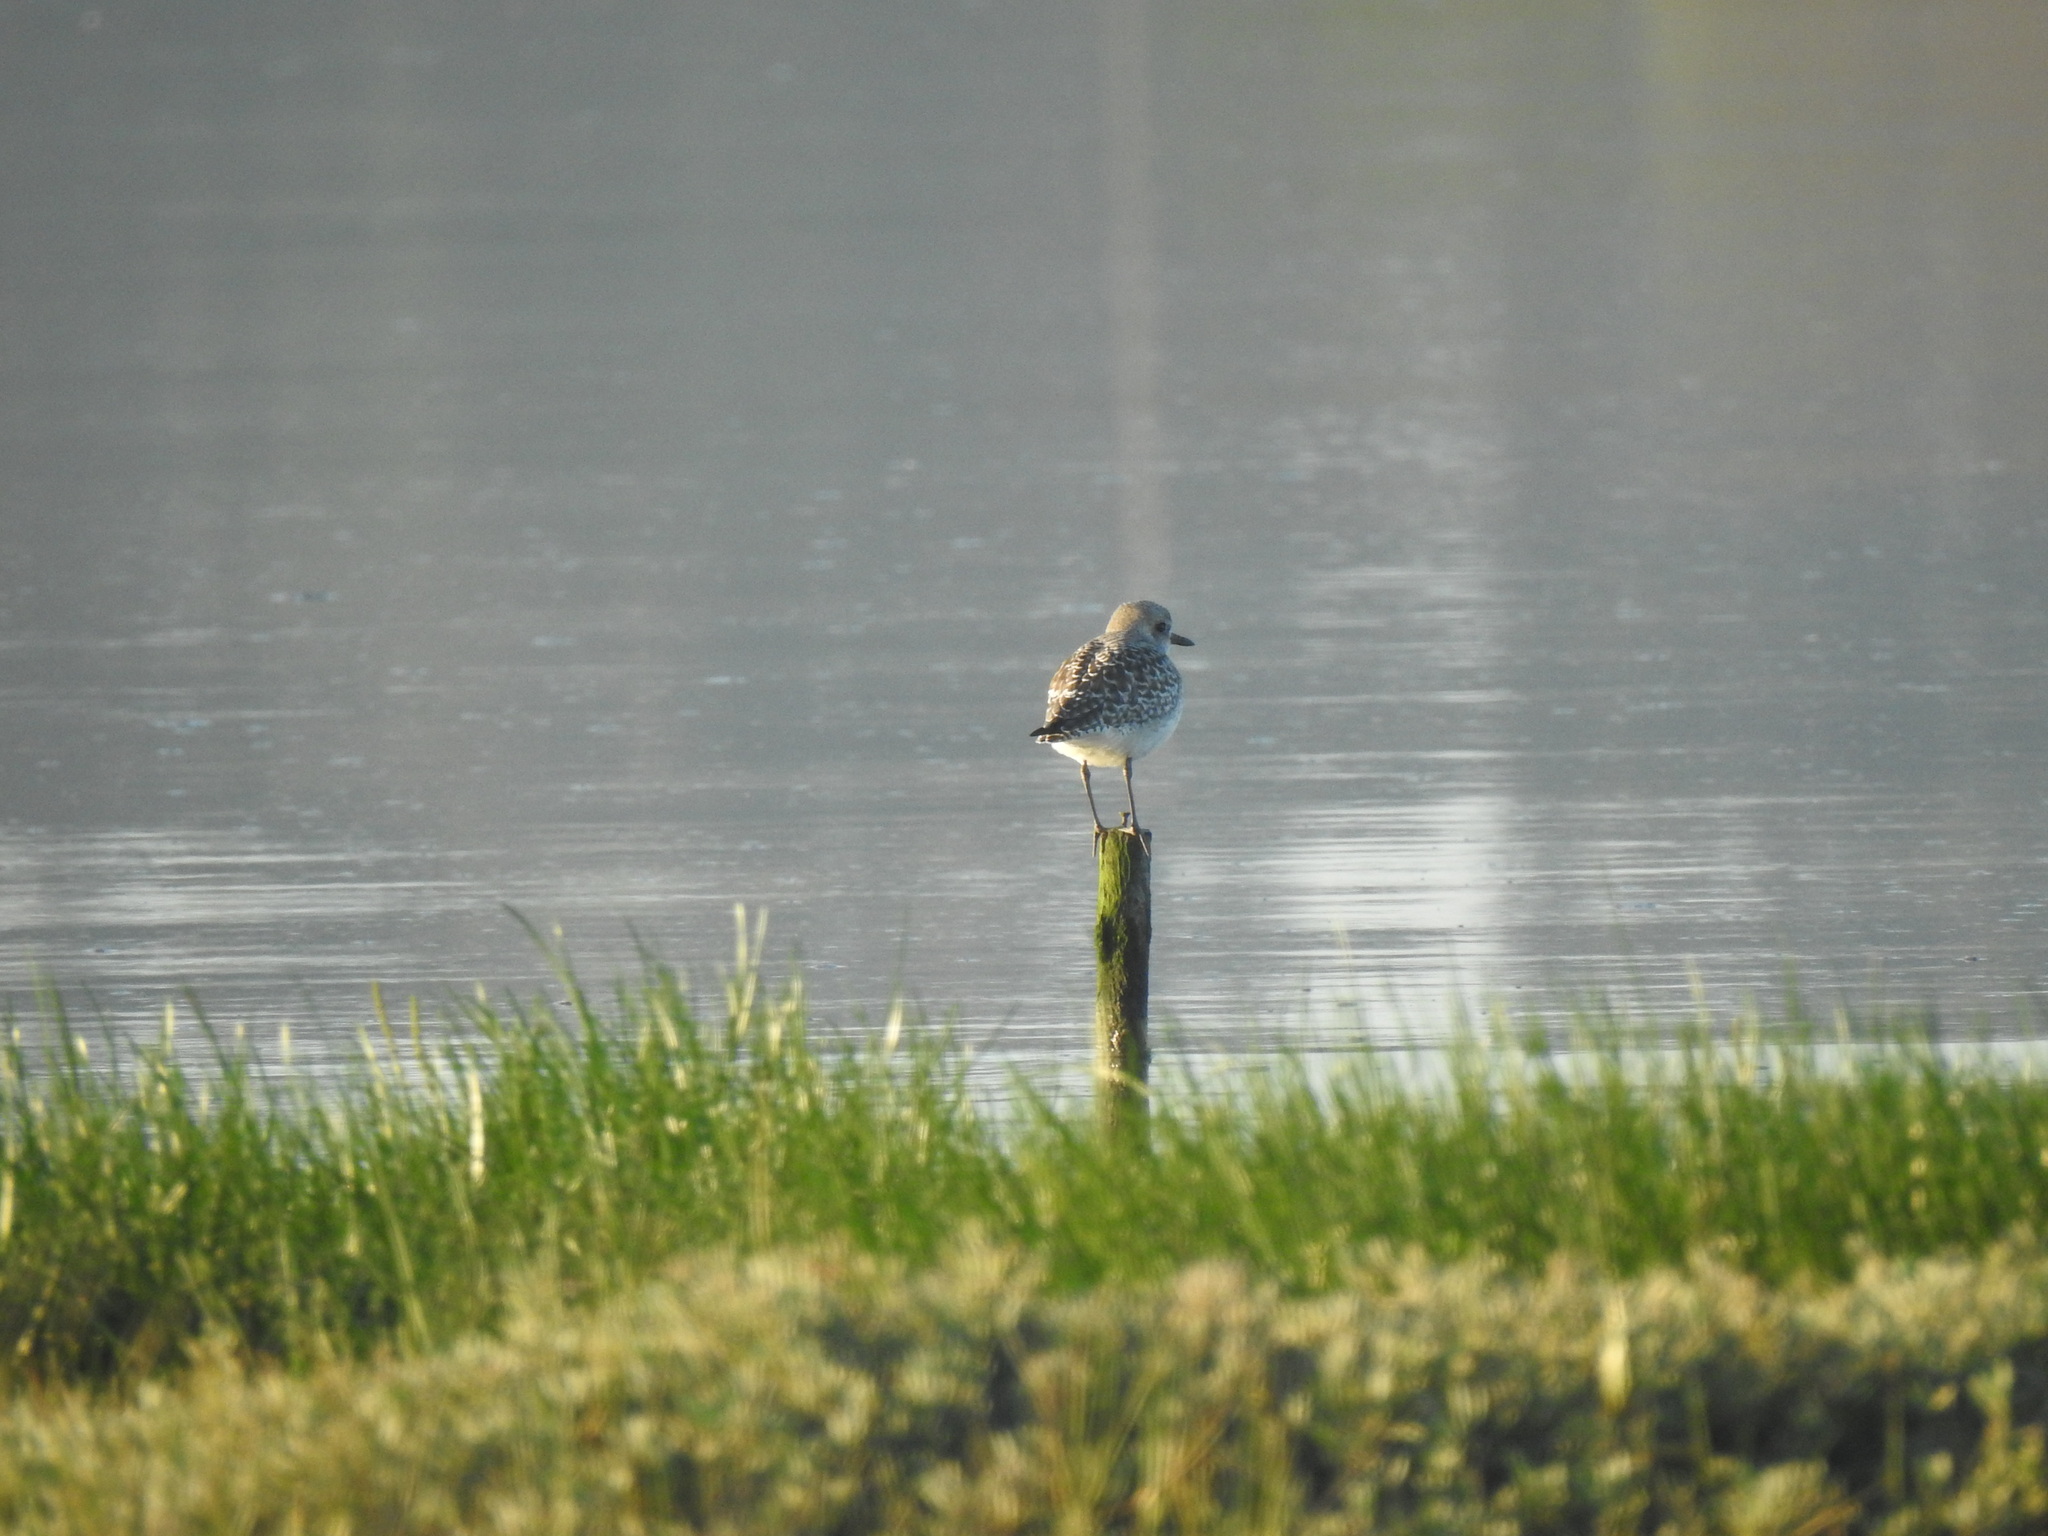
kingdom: Animalia
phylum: Chordata
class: Aves
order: Charadriiformes
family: Charadriidae
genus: Pluvialis
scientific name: Pluvialis squatarola
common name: Grey plover
